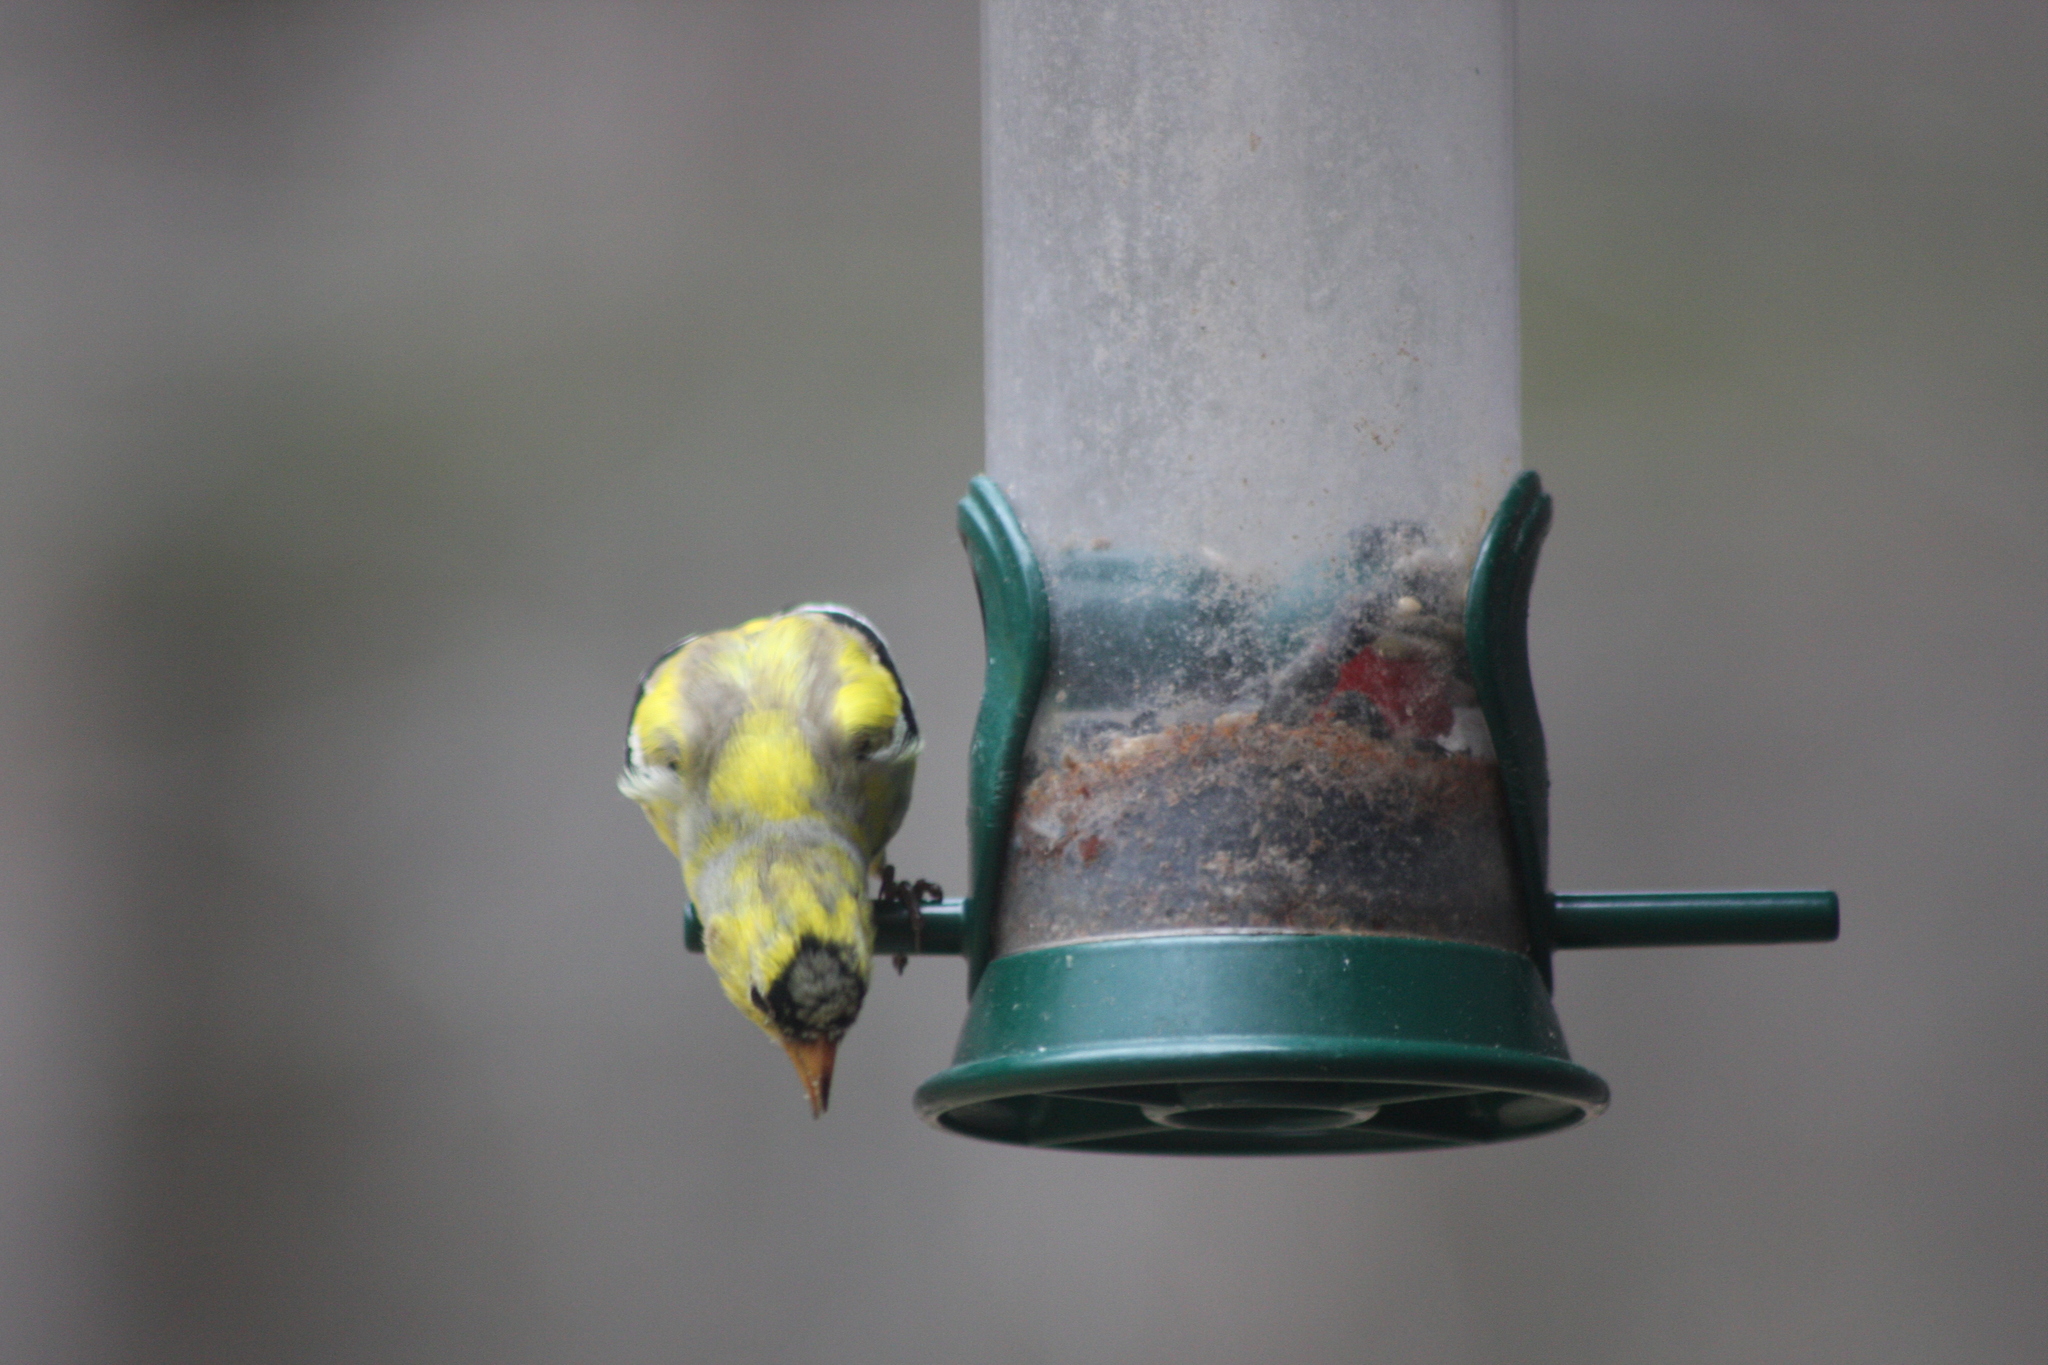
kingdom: Animalia
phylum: Chordata
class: Aves
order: Passeriformes
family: Fringillidae
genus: Spinus
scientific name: Spinus tristis
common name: American goldfinch
